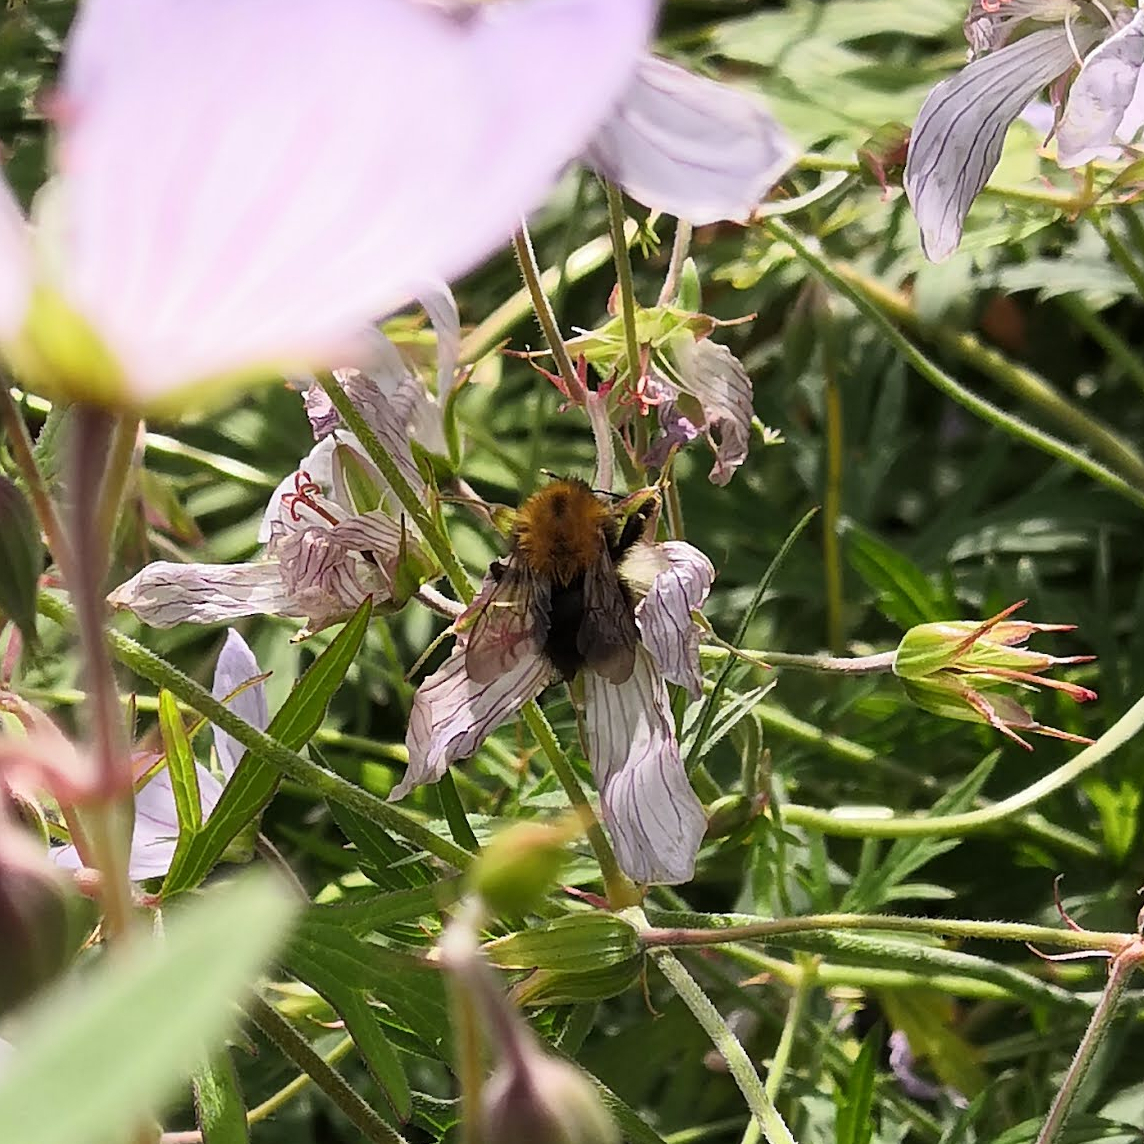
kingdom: Animalia
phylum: Arthropoda
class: Insecta
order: Hymenoptera
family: Apidae
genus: Bombus
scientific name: Bombus pascuorum
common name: Common carder bee
